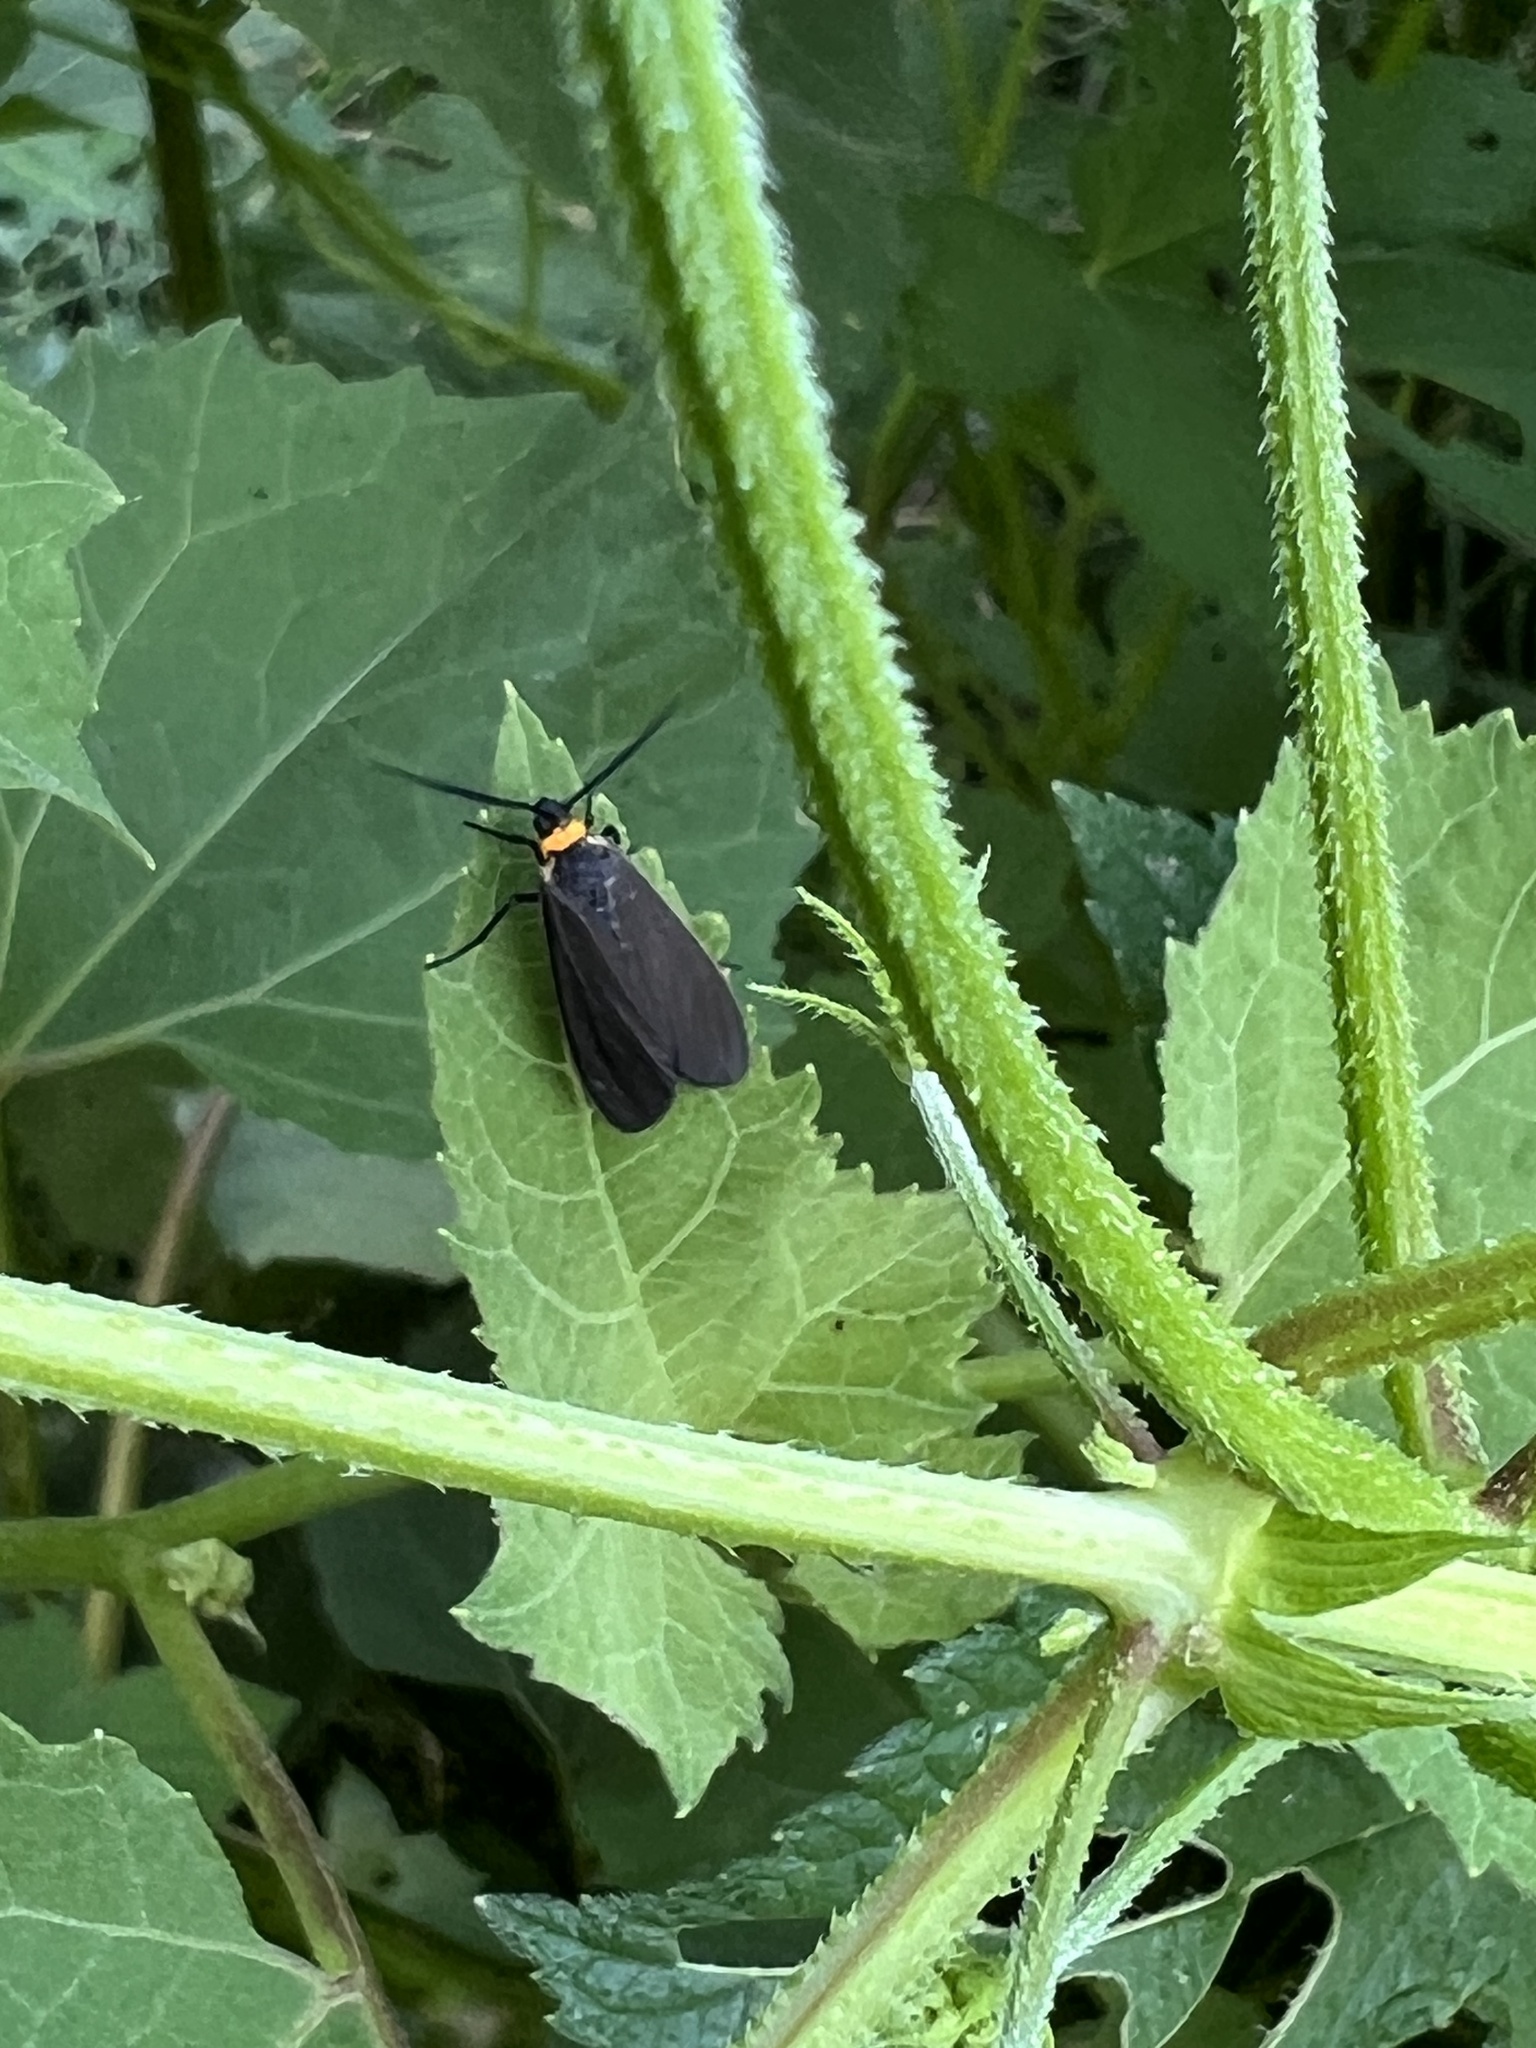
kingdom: Animalia
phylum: Arthropoda
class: Insecta
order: Lepidoptera
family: Erebidae
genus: Cisseps
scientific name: Cisseps fulvicollis
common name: Yellow-collared scape moth
